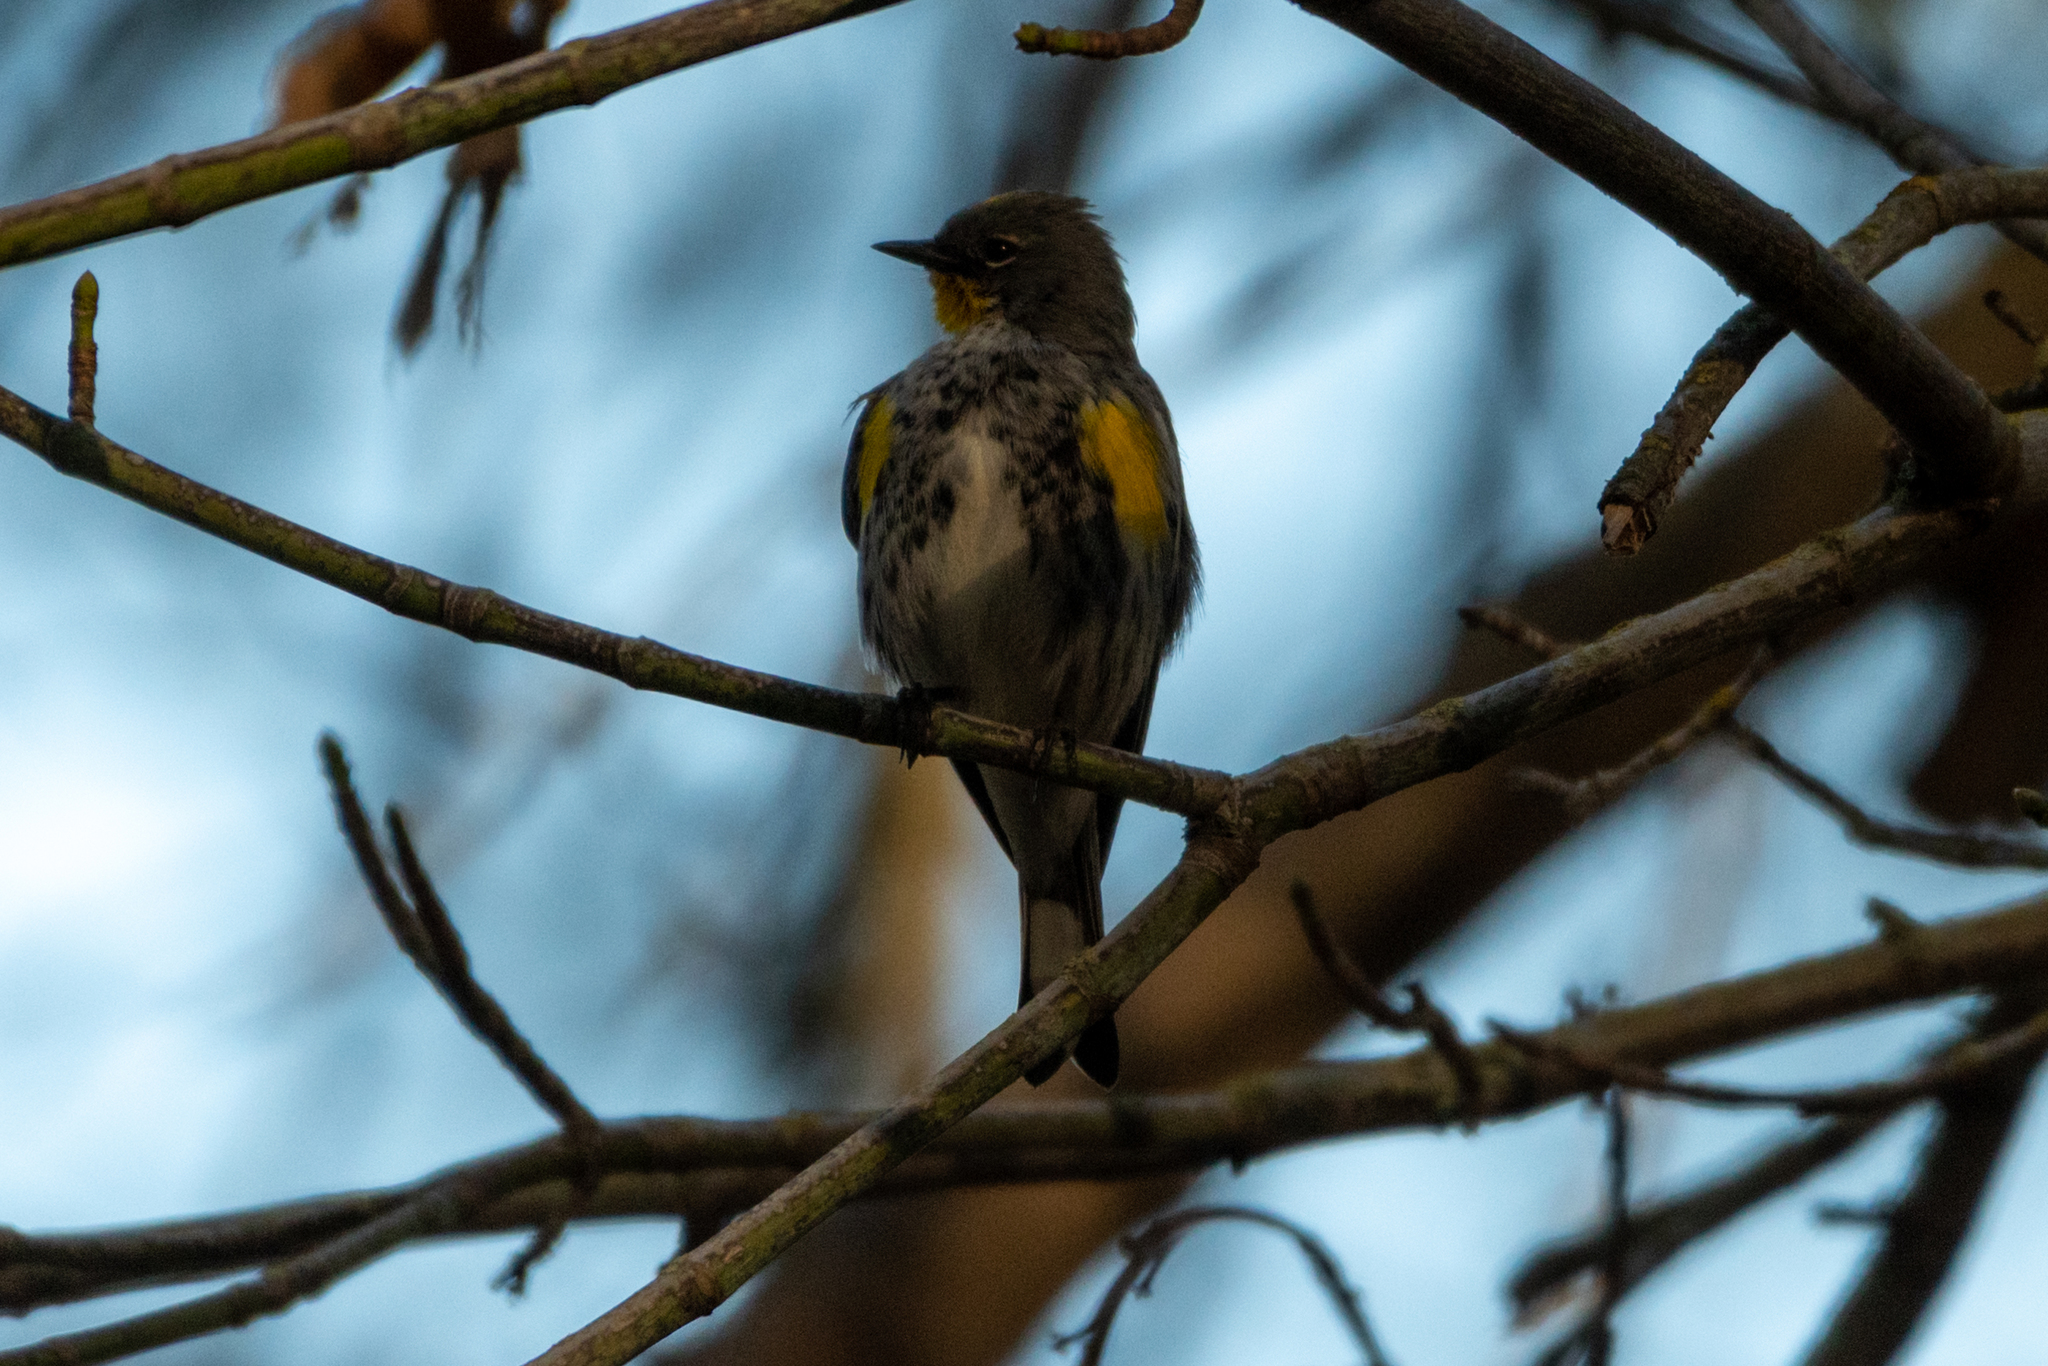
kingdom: Animalia
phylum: Chordata
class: Aves
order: Passeriformes
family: Parulidae
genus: Setophaga
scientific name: Setophaga coronata
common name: Myrtle warbler
